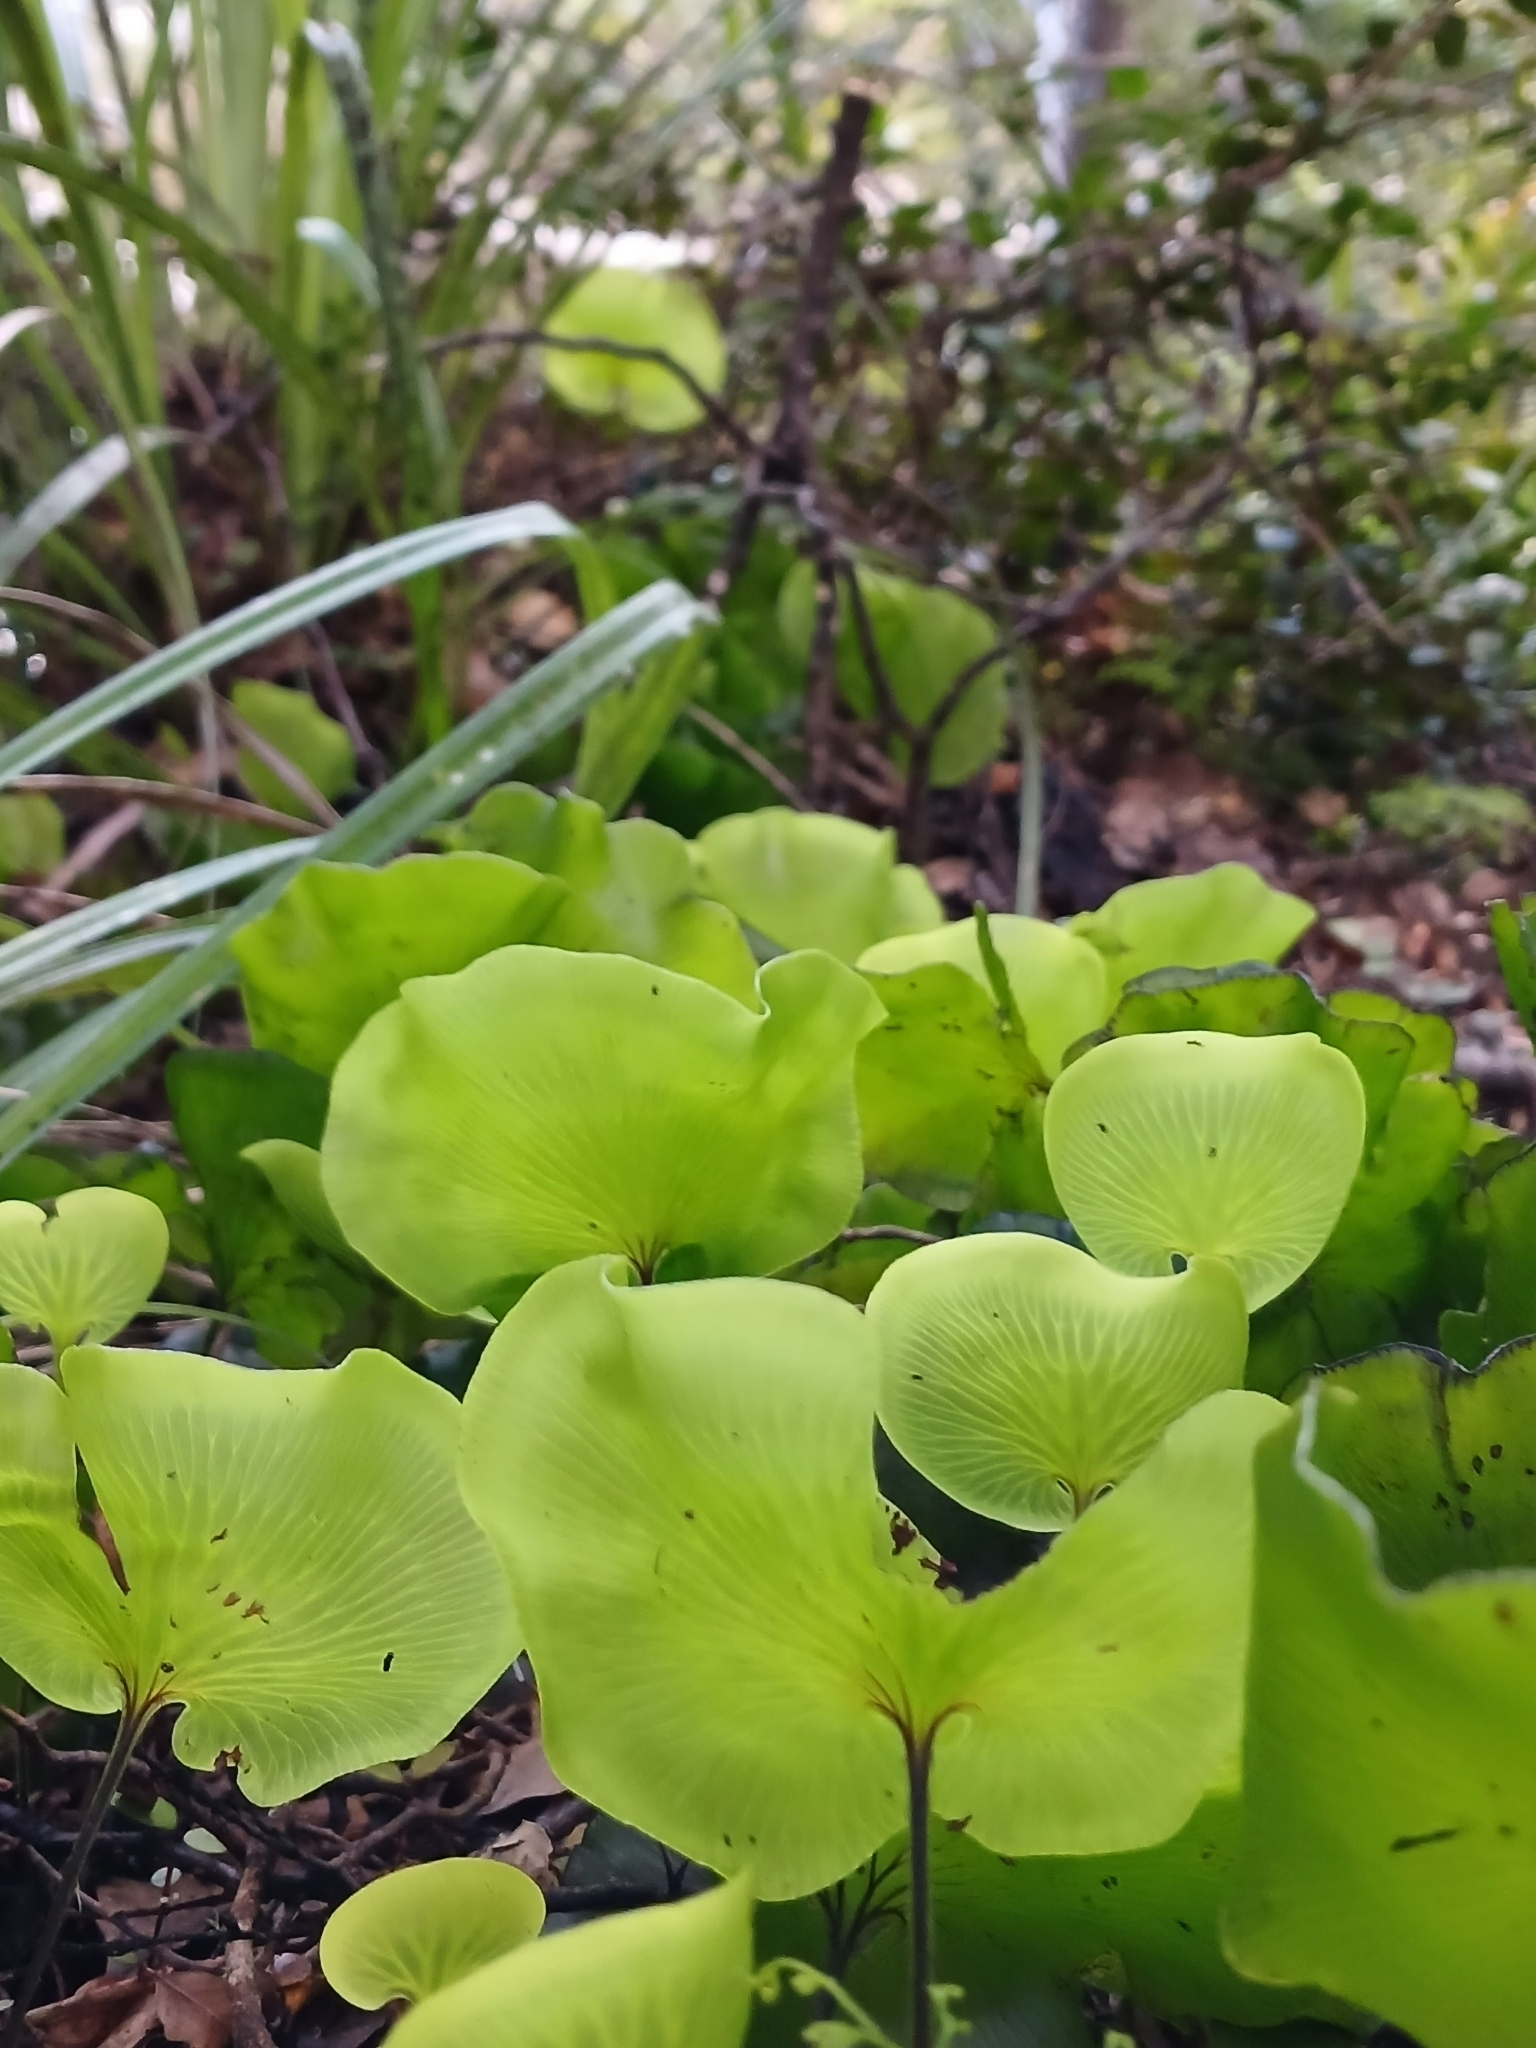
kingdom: Plantae
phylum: Tracheophyta
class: Polypodiopsida
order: Hymenophyllales
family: Hymenophyllaceae
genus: Hymenophyllum
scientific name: Hymenophyllum nephrophyllum
